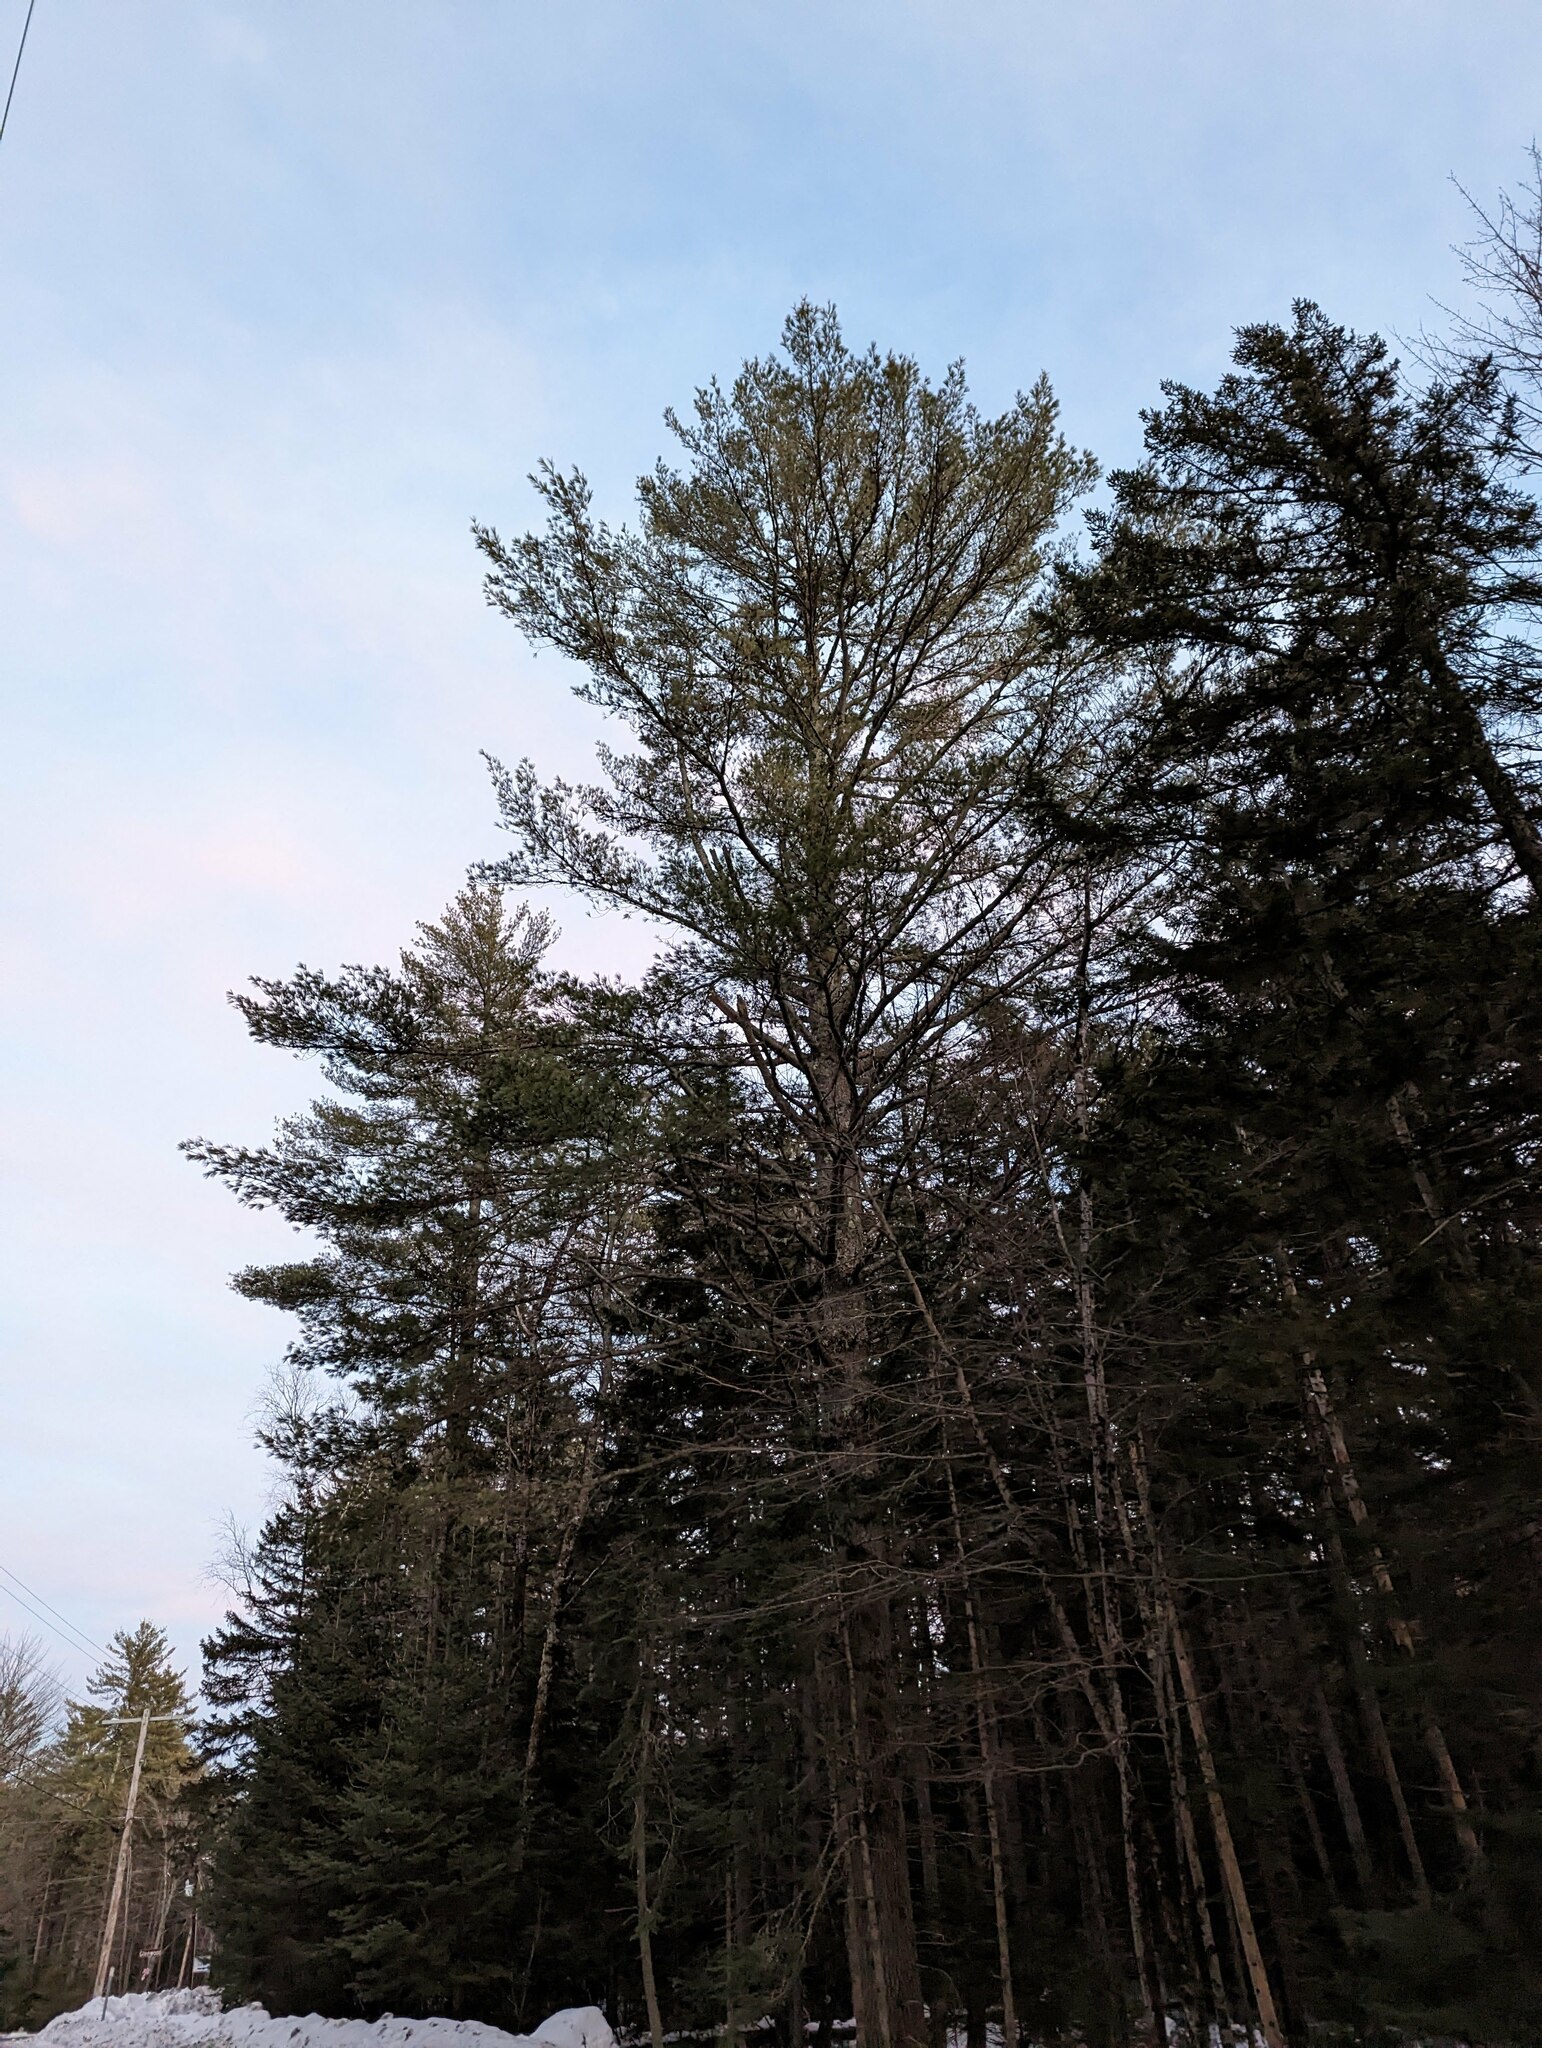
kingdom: Plantae
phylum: Tracheophyta
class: Pinopsida
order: Pinales
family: Pinaceae
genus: Pinus
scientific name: Pinus strobus
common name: Weymouth pine
